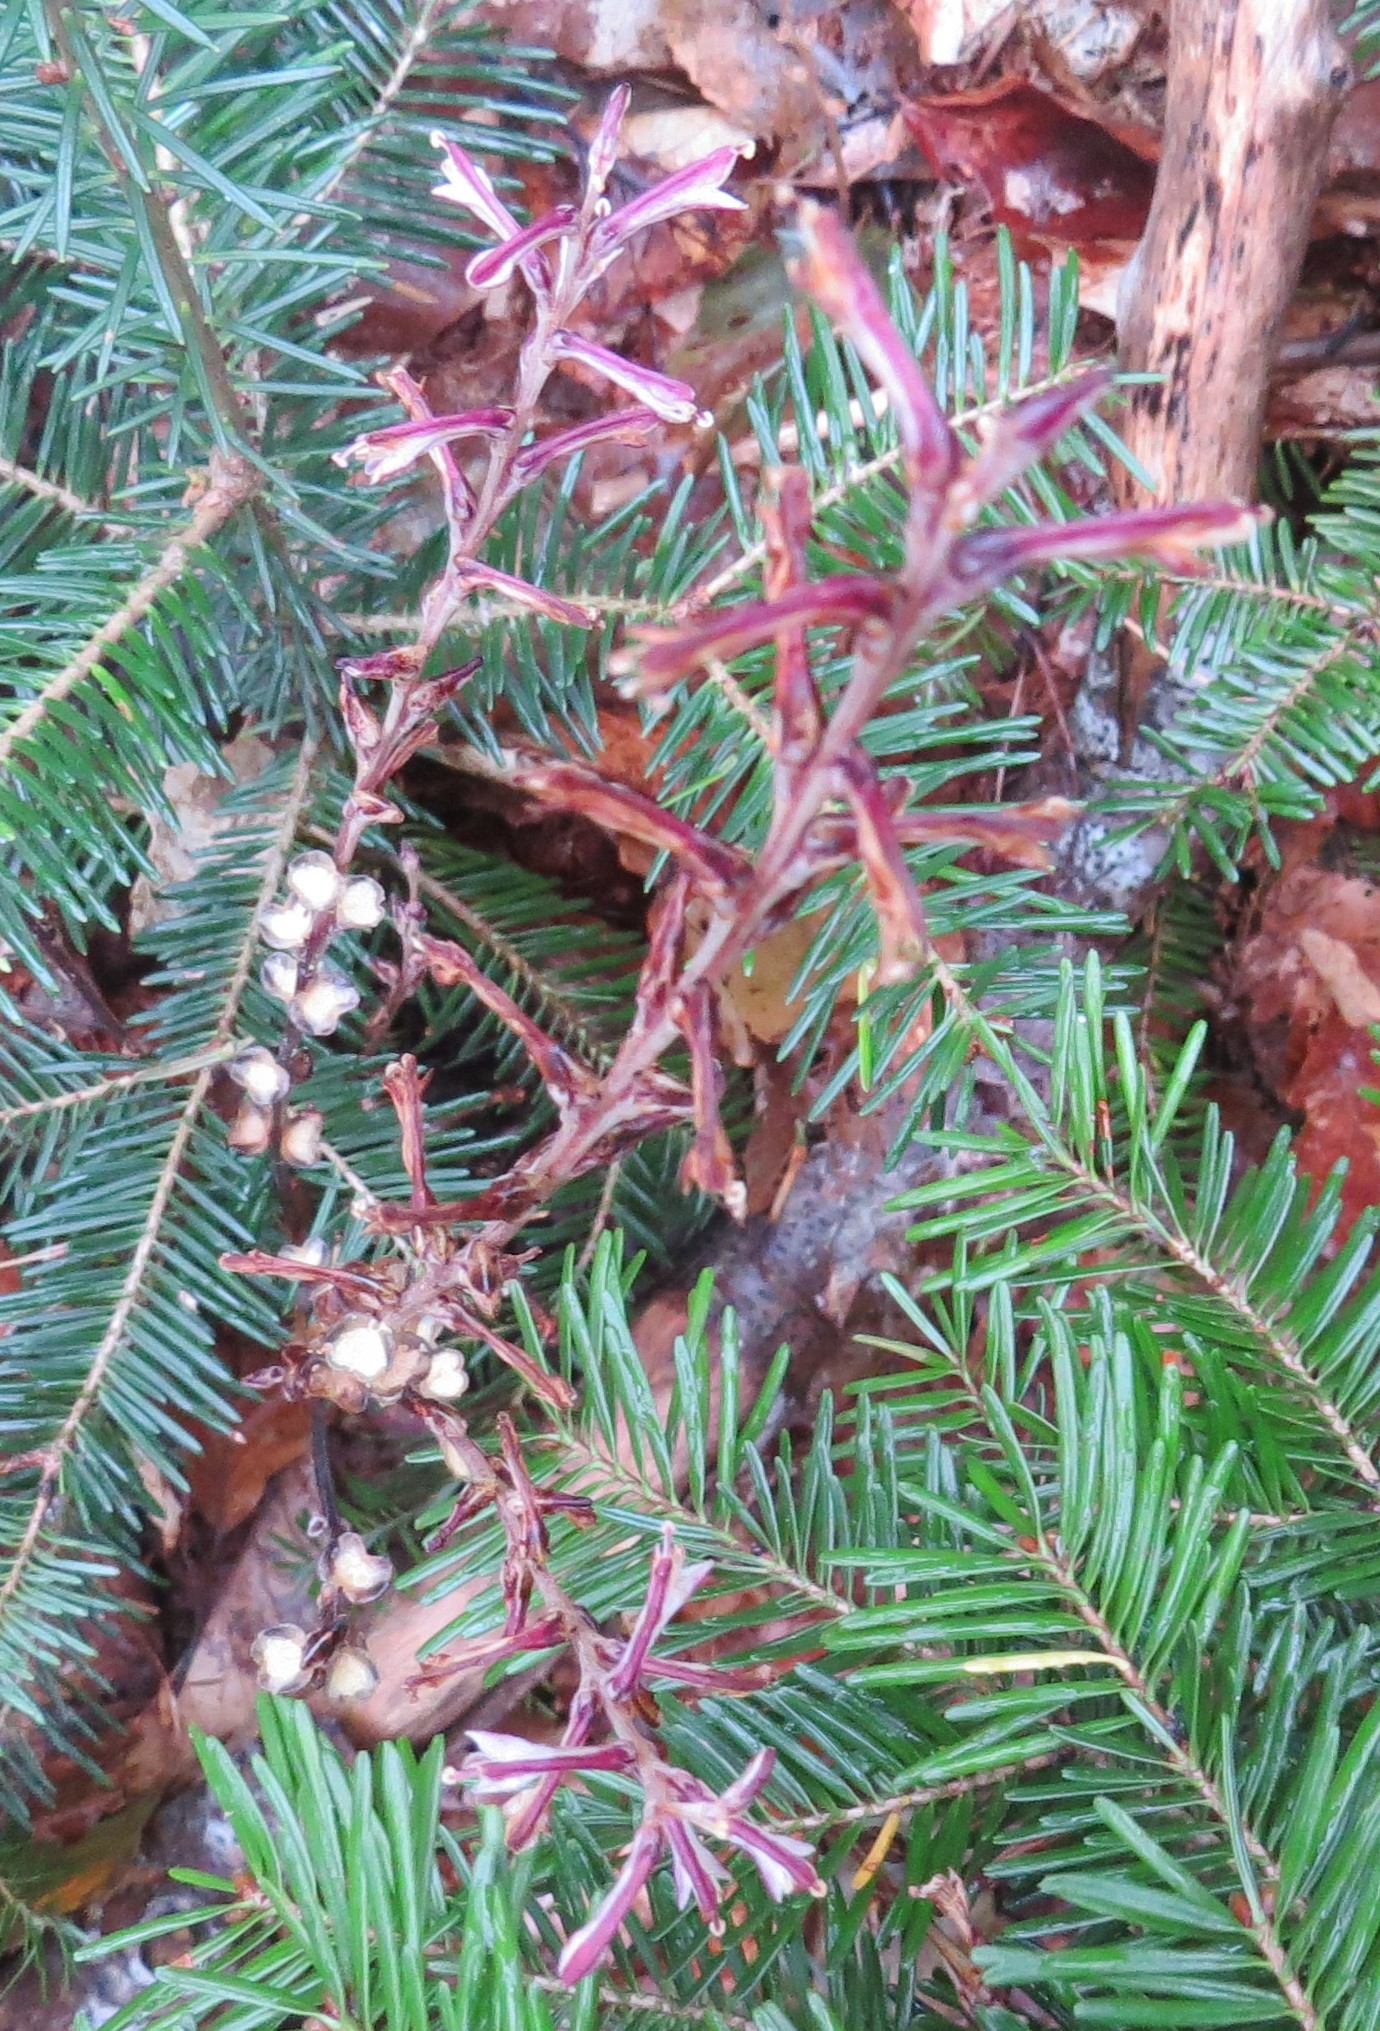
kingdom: Plantae
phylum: Tracheophyta
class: Magnoliopsida
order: Lamiales
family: Orobanchaceae
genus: Epifagus
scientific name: Epifagus virginiana
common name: Beechdrops
